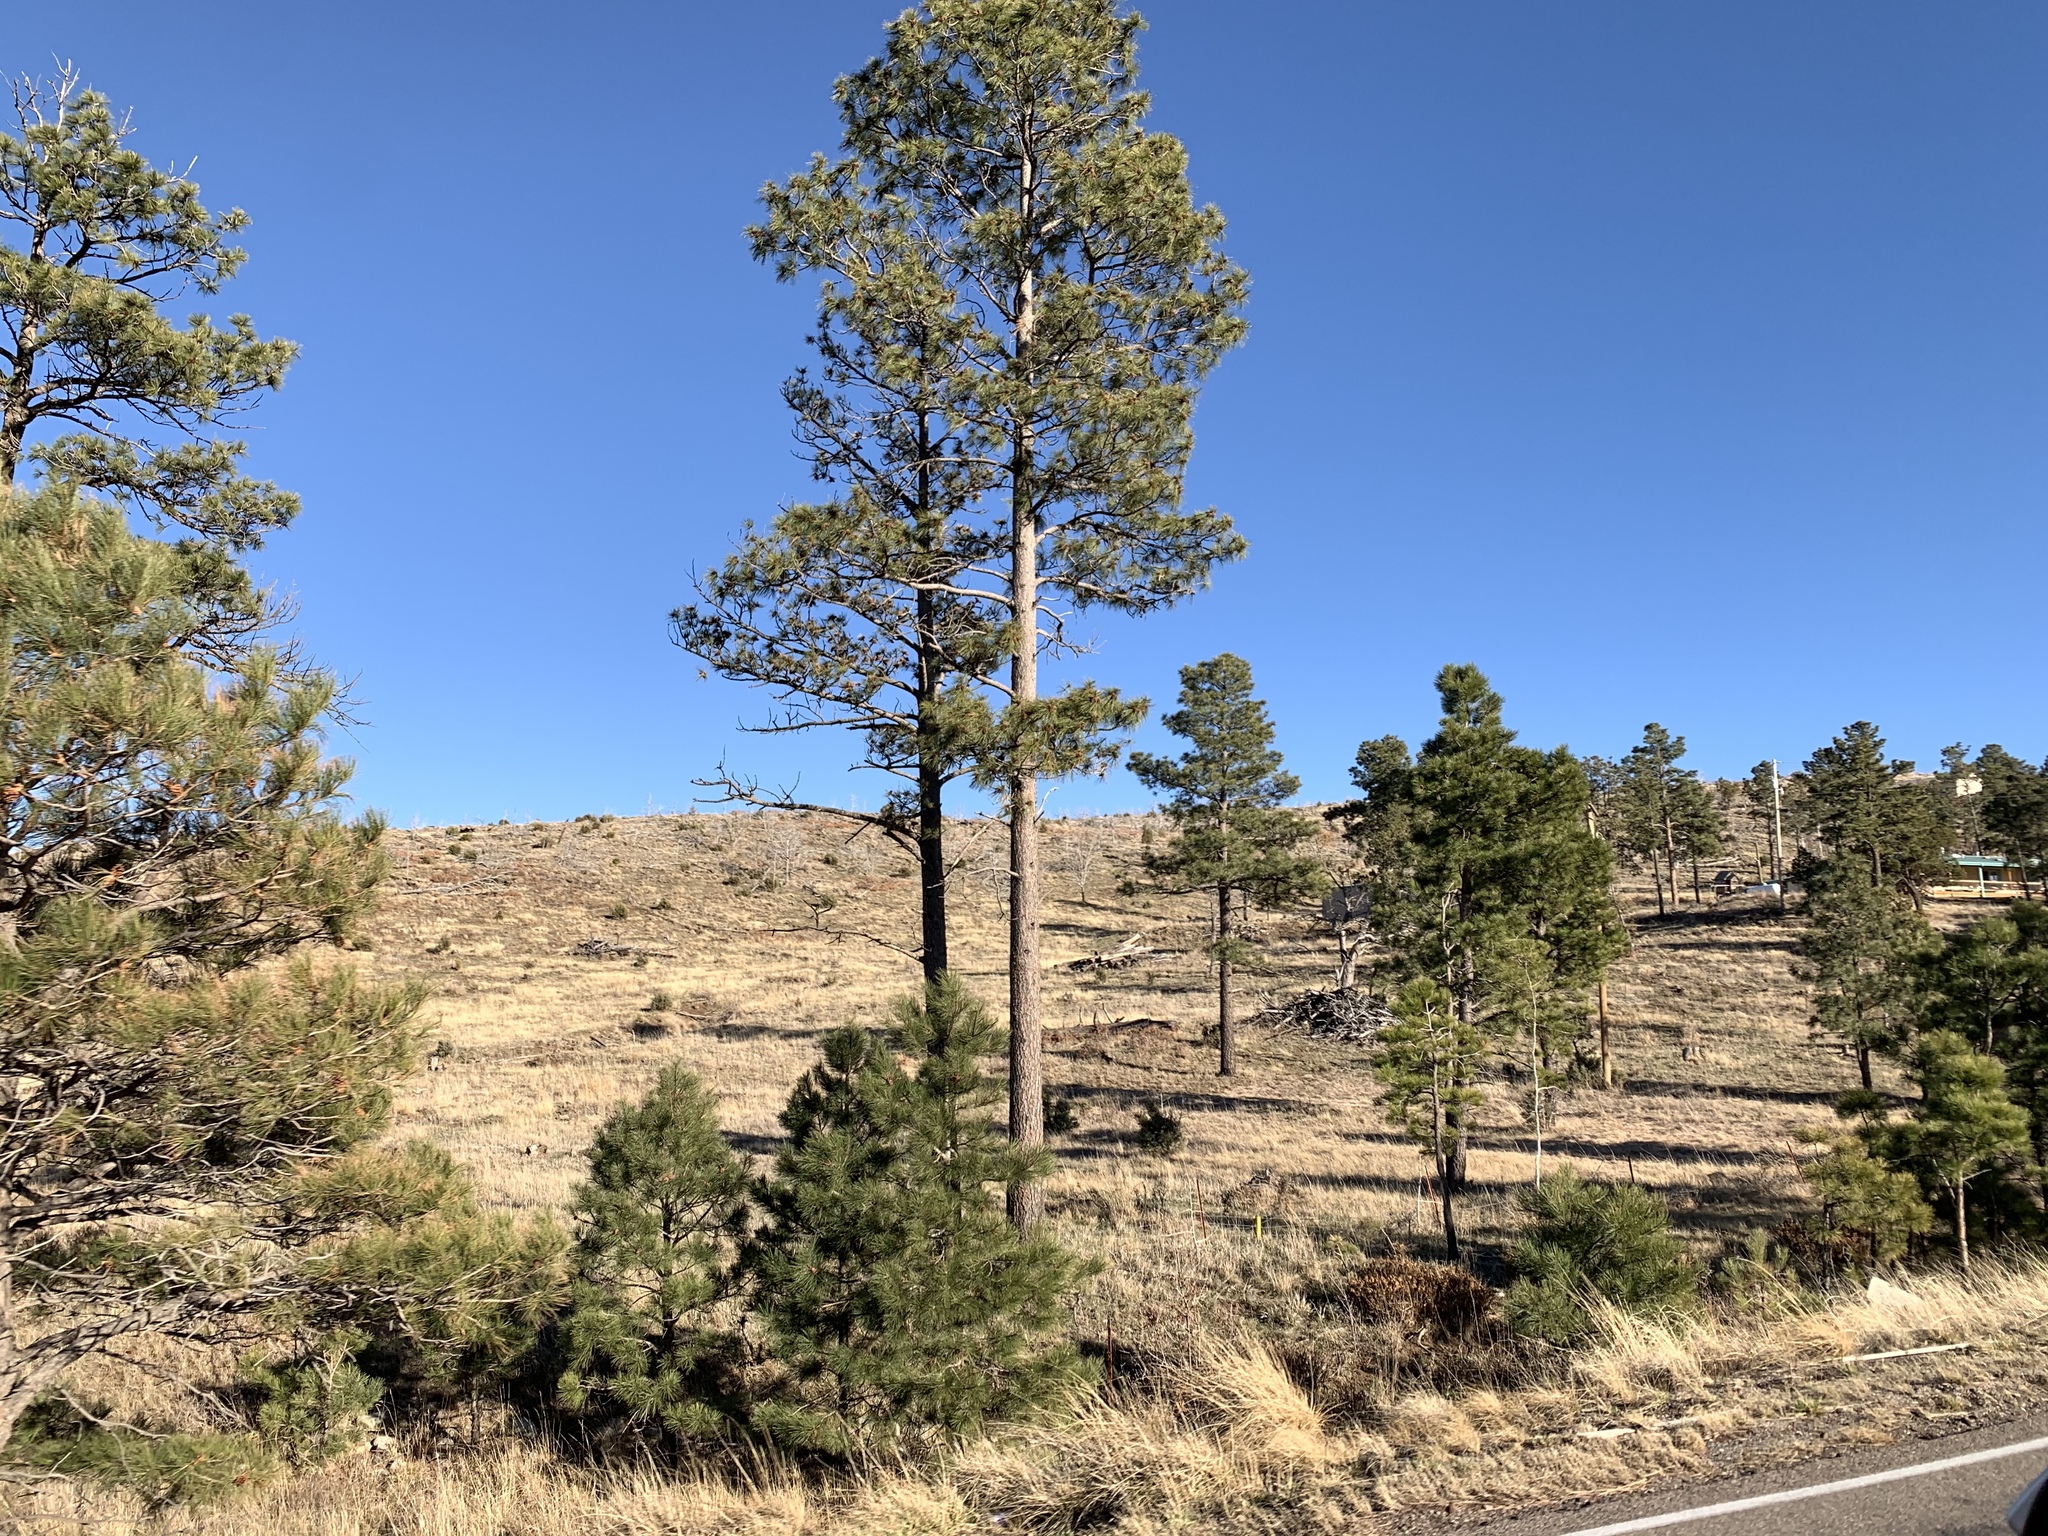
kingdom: Plantae
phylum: Tracheophyta
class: Pinopsida
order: Pinales
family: Pinaceae
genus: Pinus
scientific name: Pinus ponderosa
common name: Western yellow-pine
